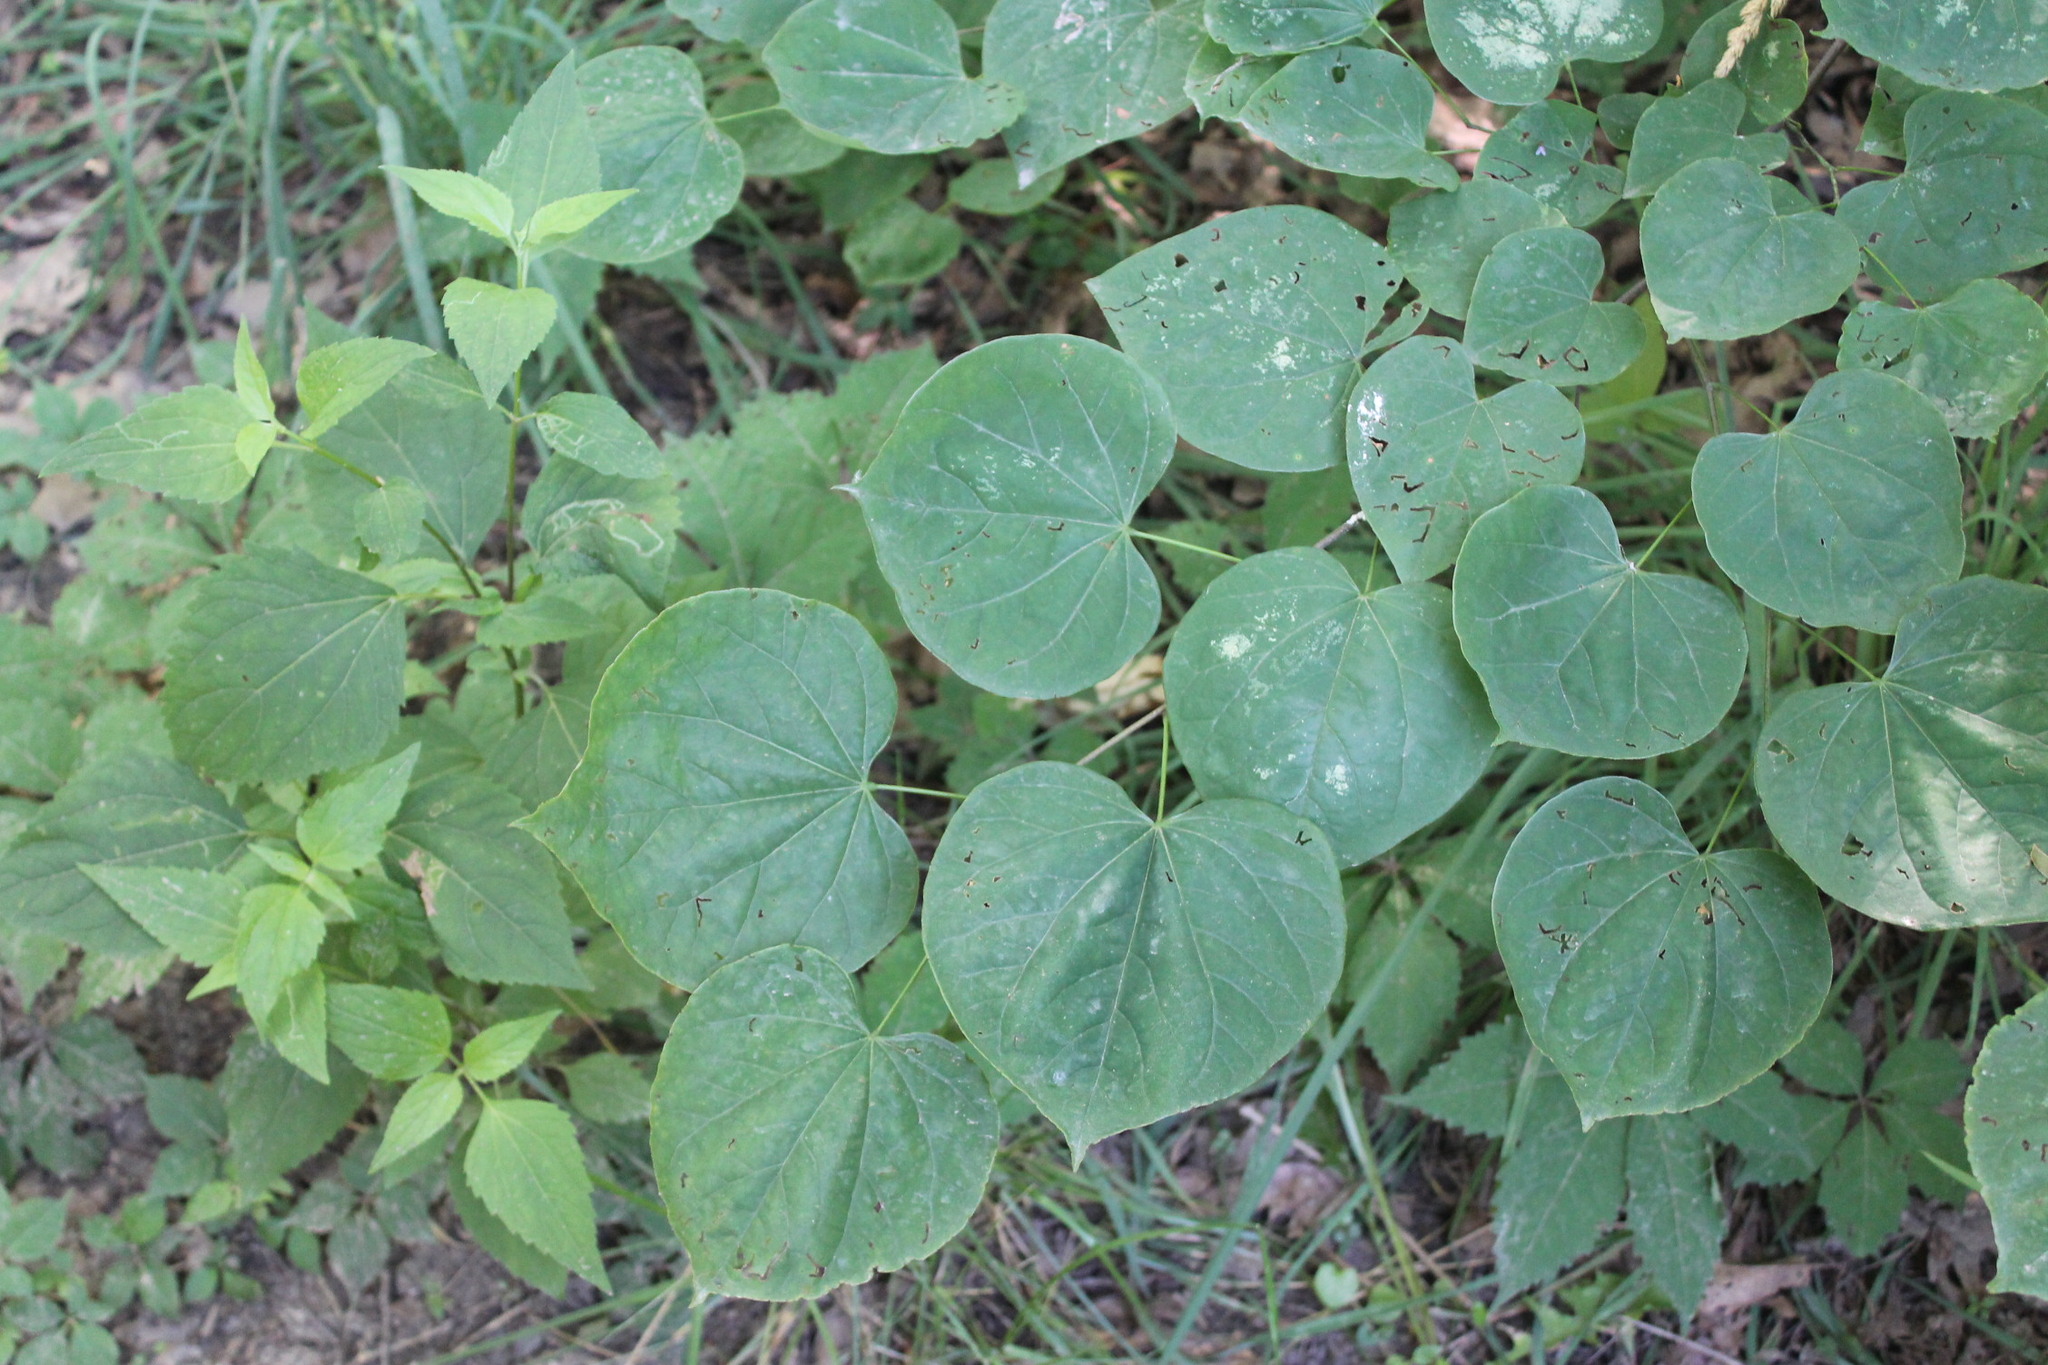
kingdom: Plantae
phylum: Tracheophyta
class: Magnoliopsida
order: Fabales
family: Fabaceae
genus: Cercis
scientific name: Cercis canadensis
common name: Eastern redbud
